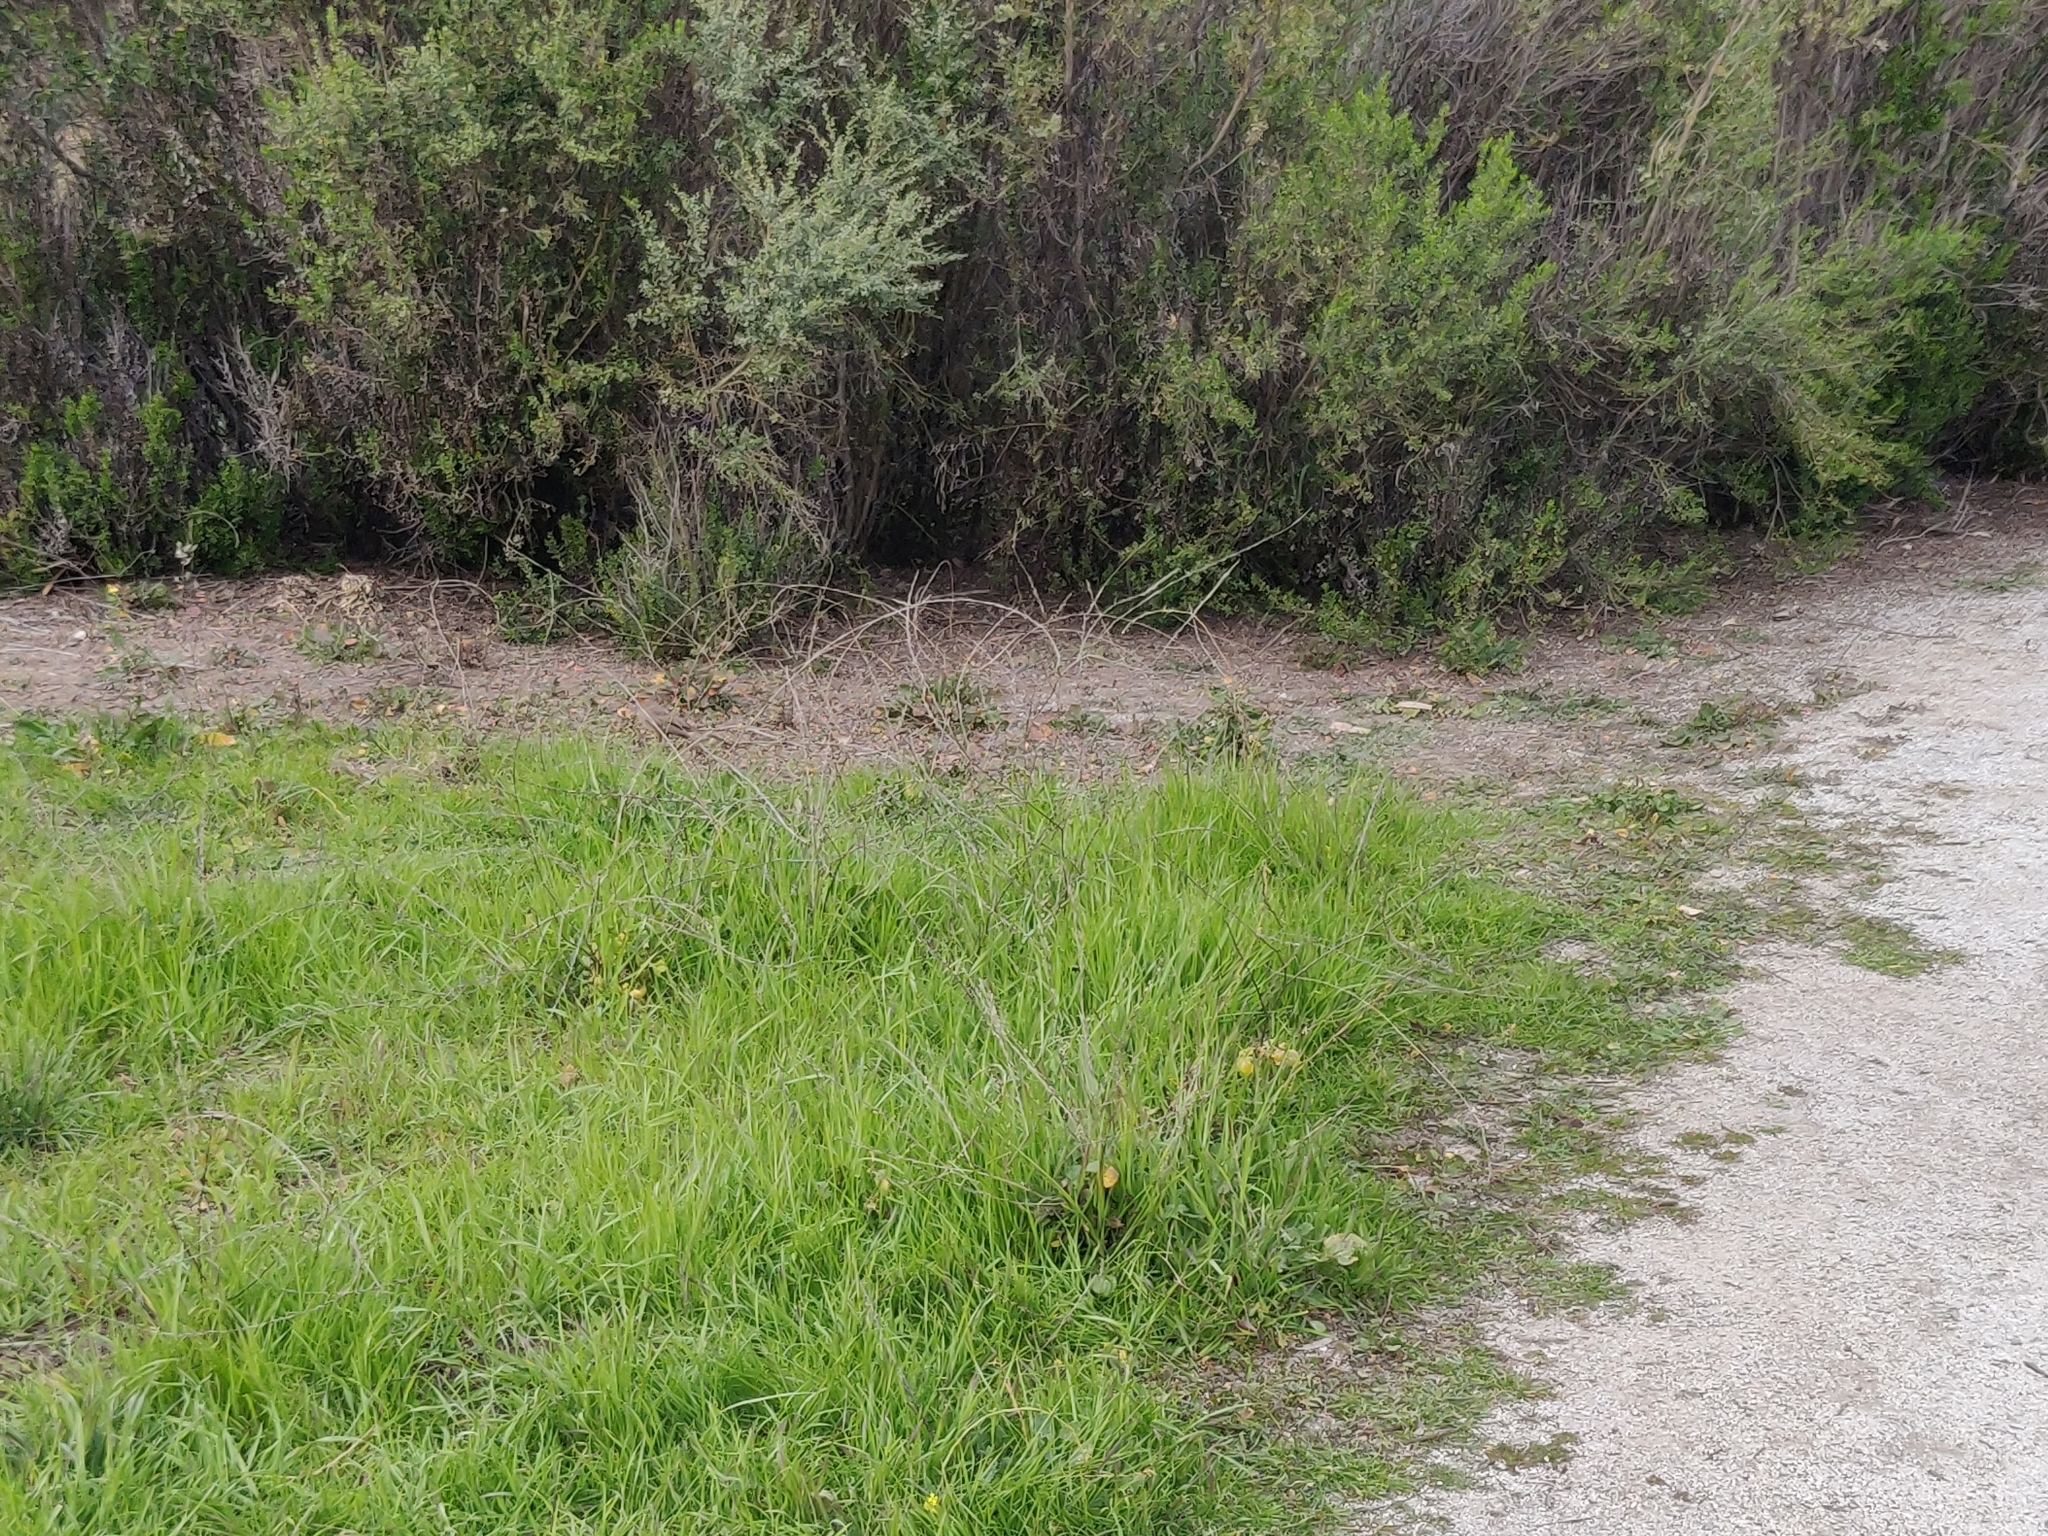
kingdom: Animalia
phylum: Chordata
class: Aves
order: Passeriformes
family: Passerellidae
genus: Melozone
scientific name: Melozone crissalis
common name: California towhee
